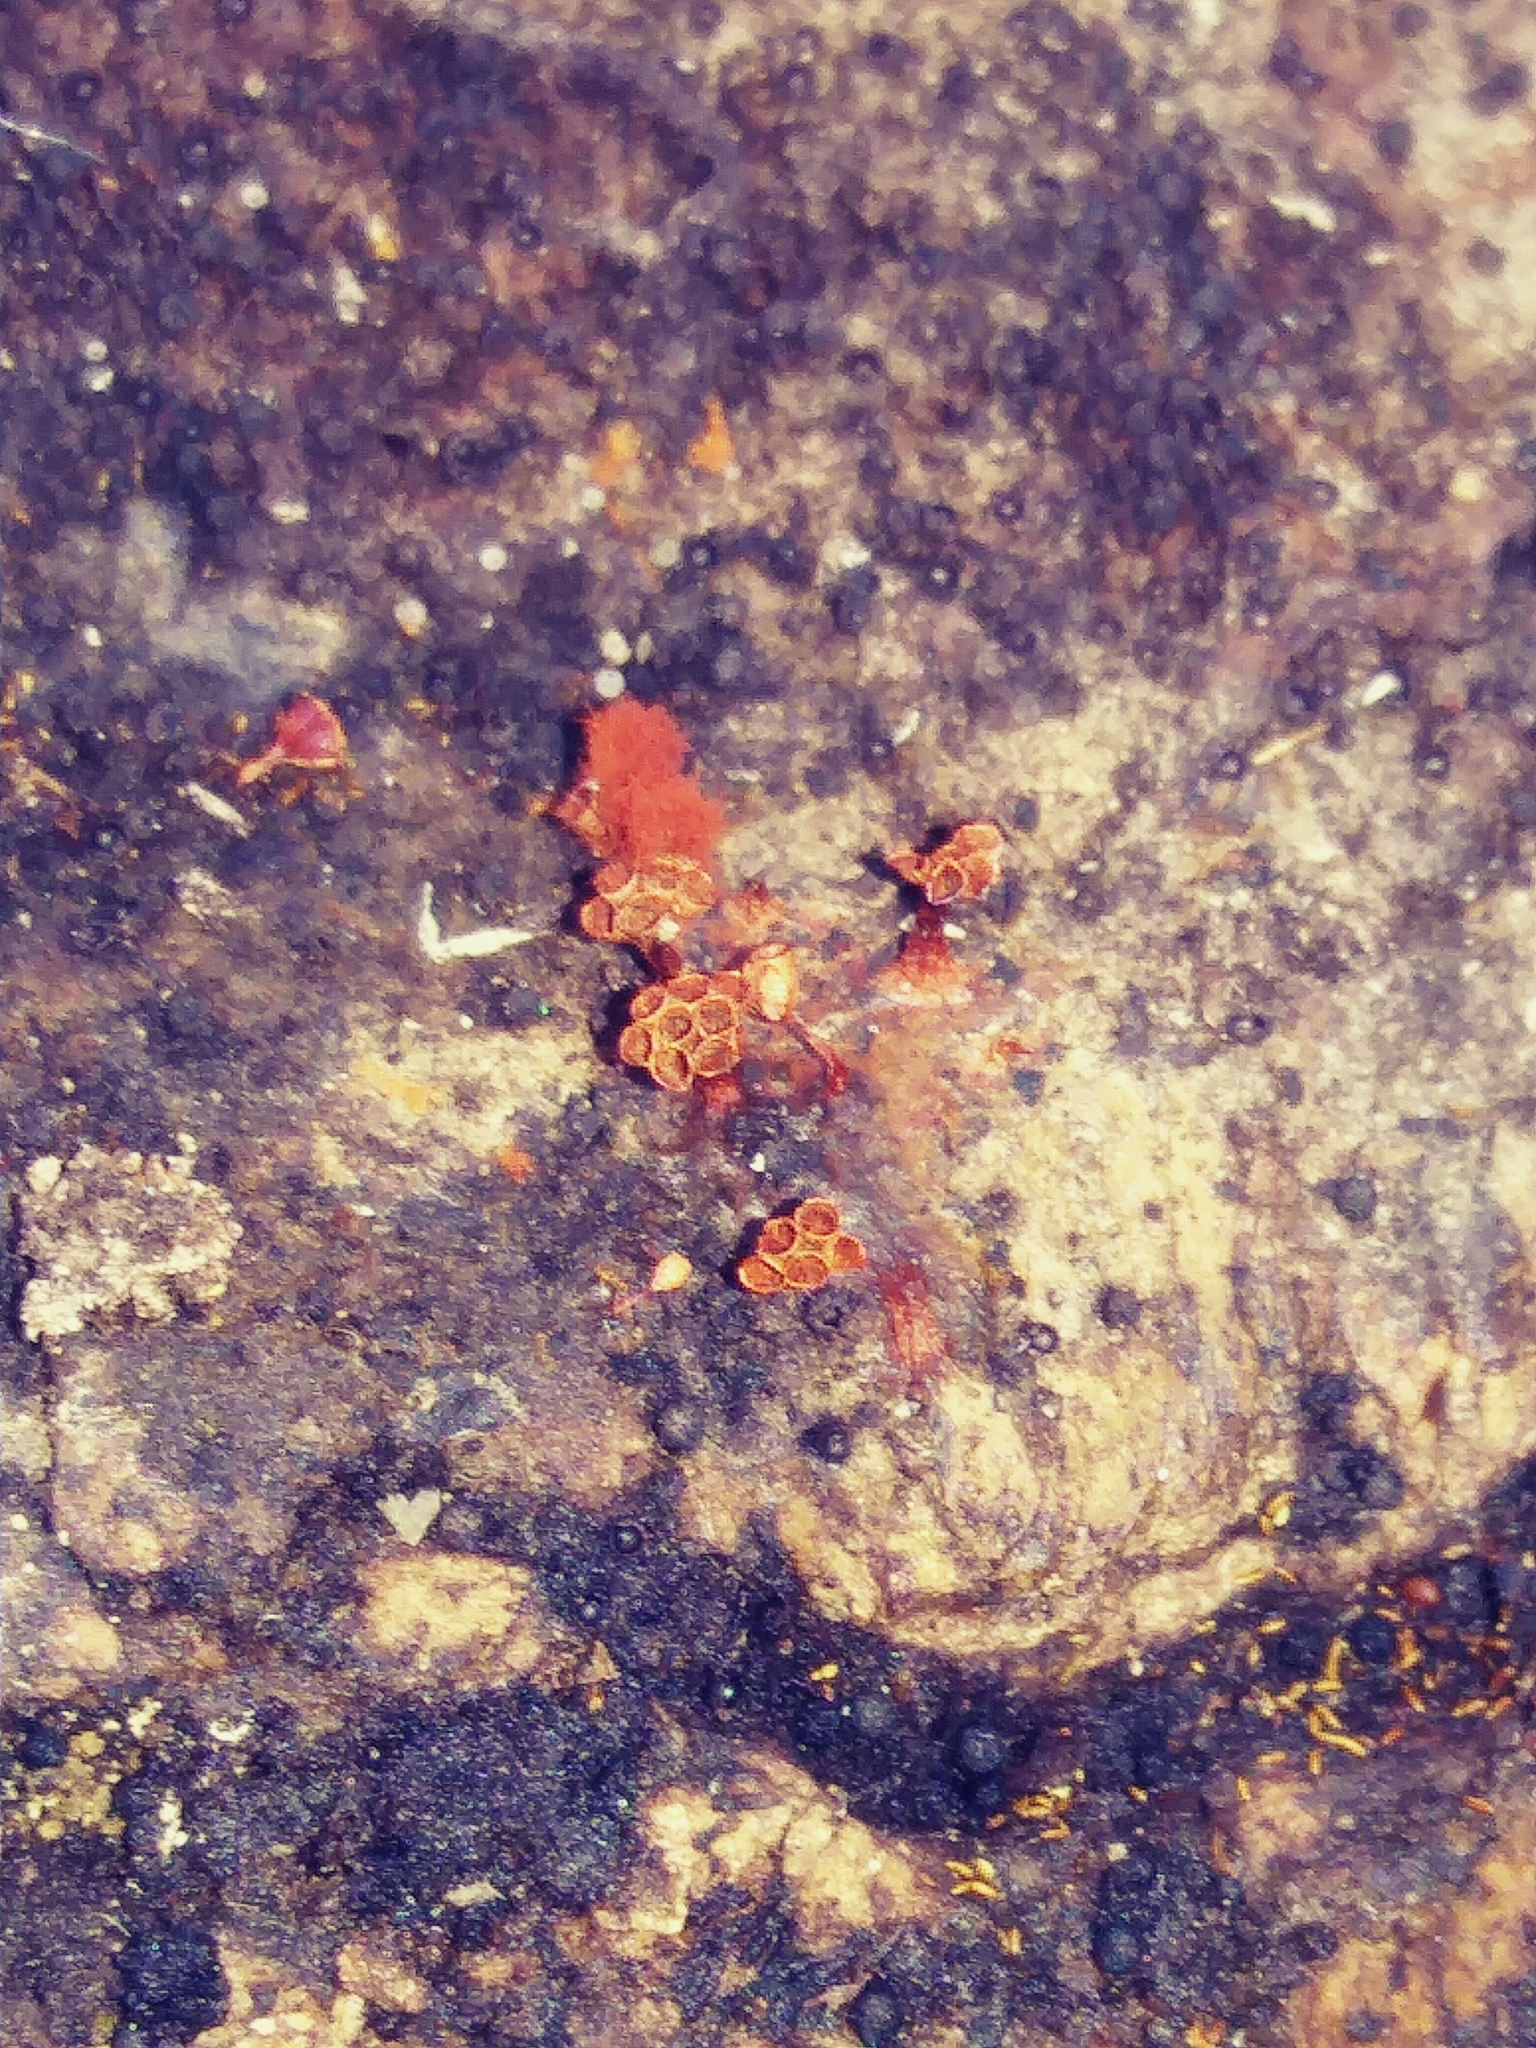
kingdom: Protozoa
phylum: Mycetozoa
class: Myxomycetes
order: Trichiales
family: Trichiaceae
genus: Metatrichia
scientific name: Metatrichia vesparia
